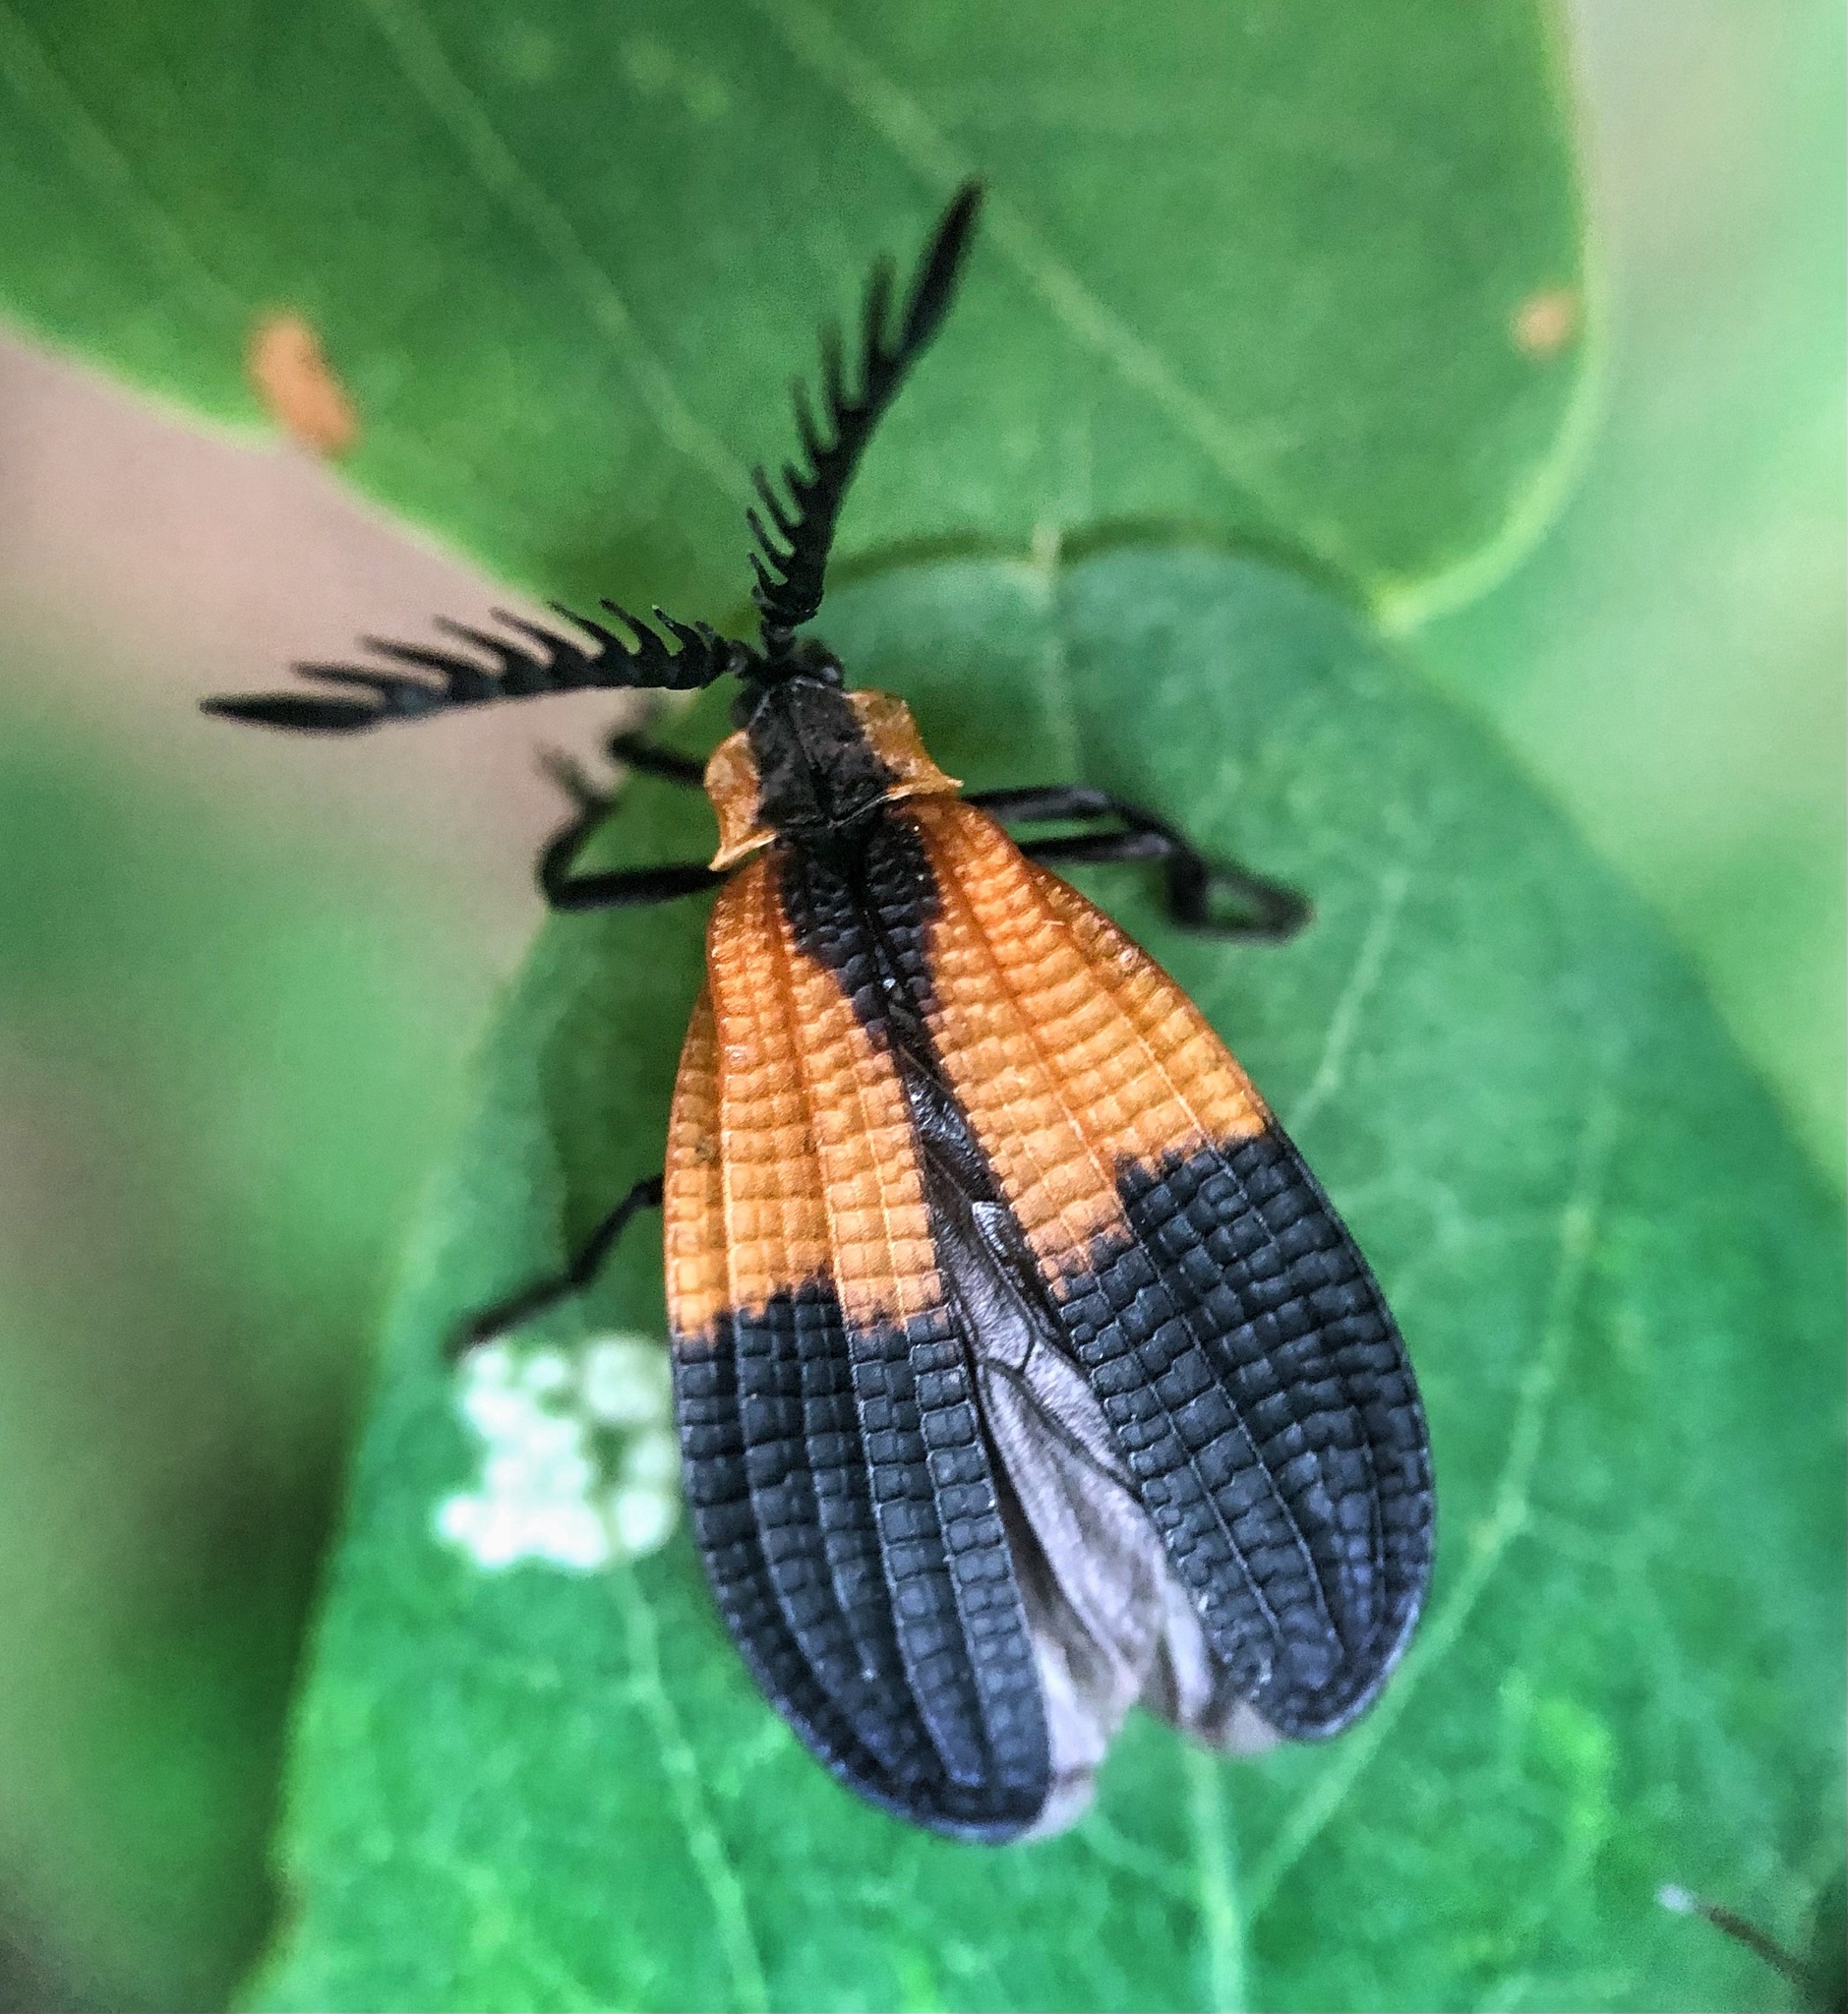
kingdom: Animalia
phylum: Arthropoda
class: Insecta
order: Coleoptera
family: Lycidae
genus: Caenia
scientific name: Caenia dimidiata
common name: Terminal net-winged beetle
